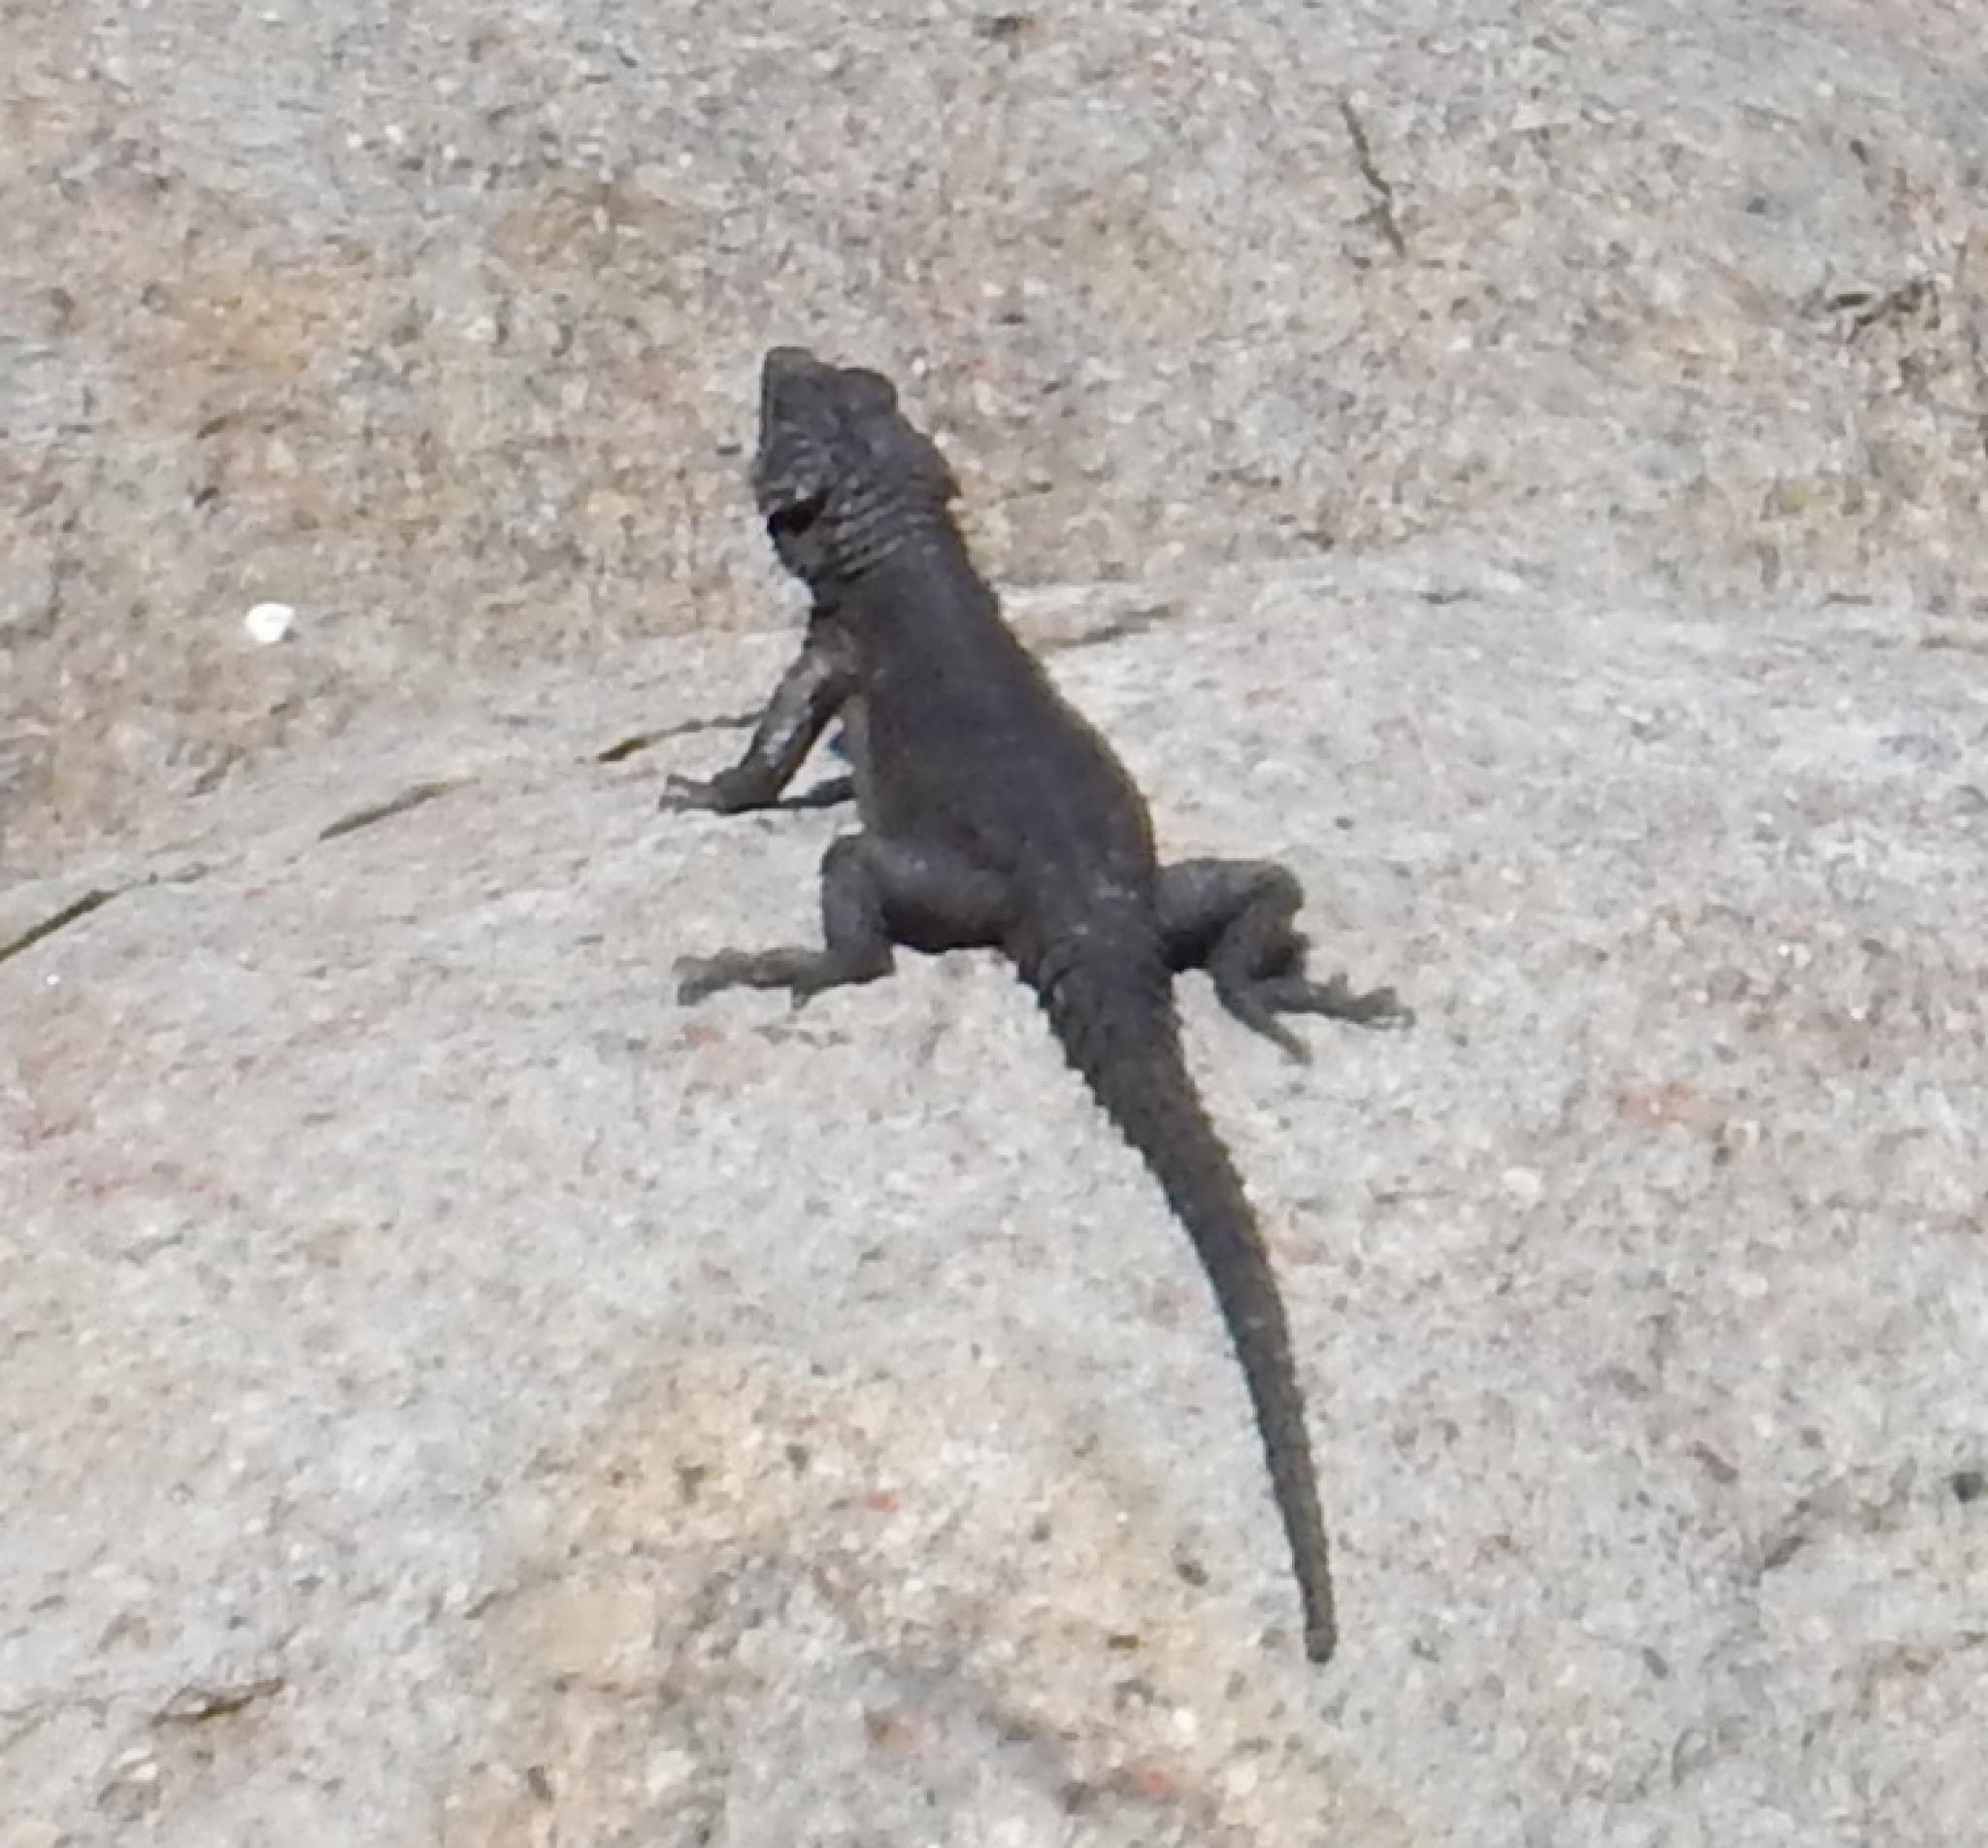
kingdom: Animalia
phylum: Chordata
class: Squamata
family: Cordylidae
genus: Cordylus
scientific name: Cordylus niger
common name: Black girdled lizard
